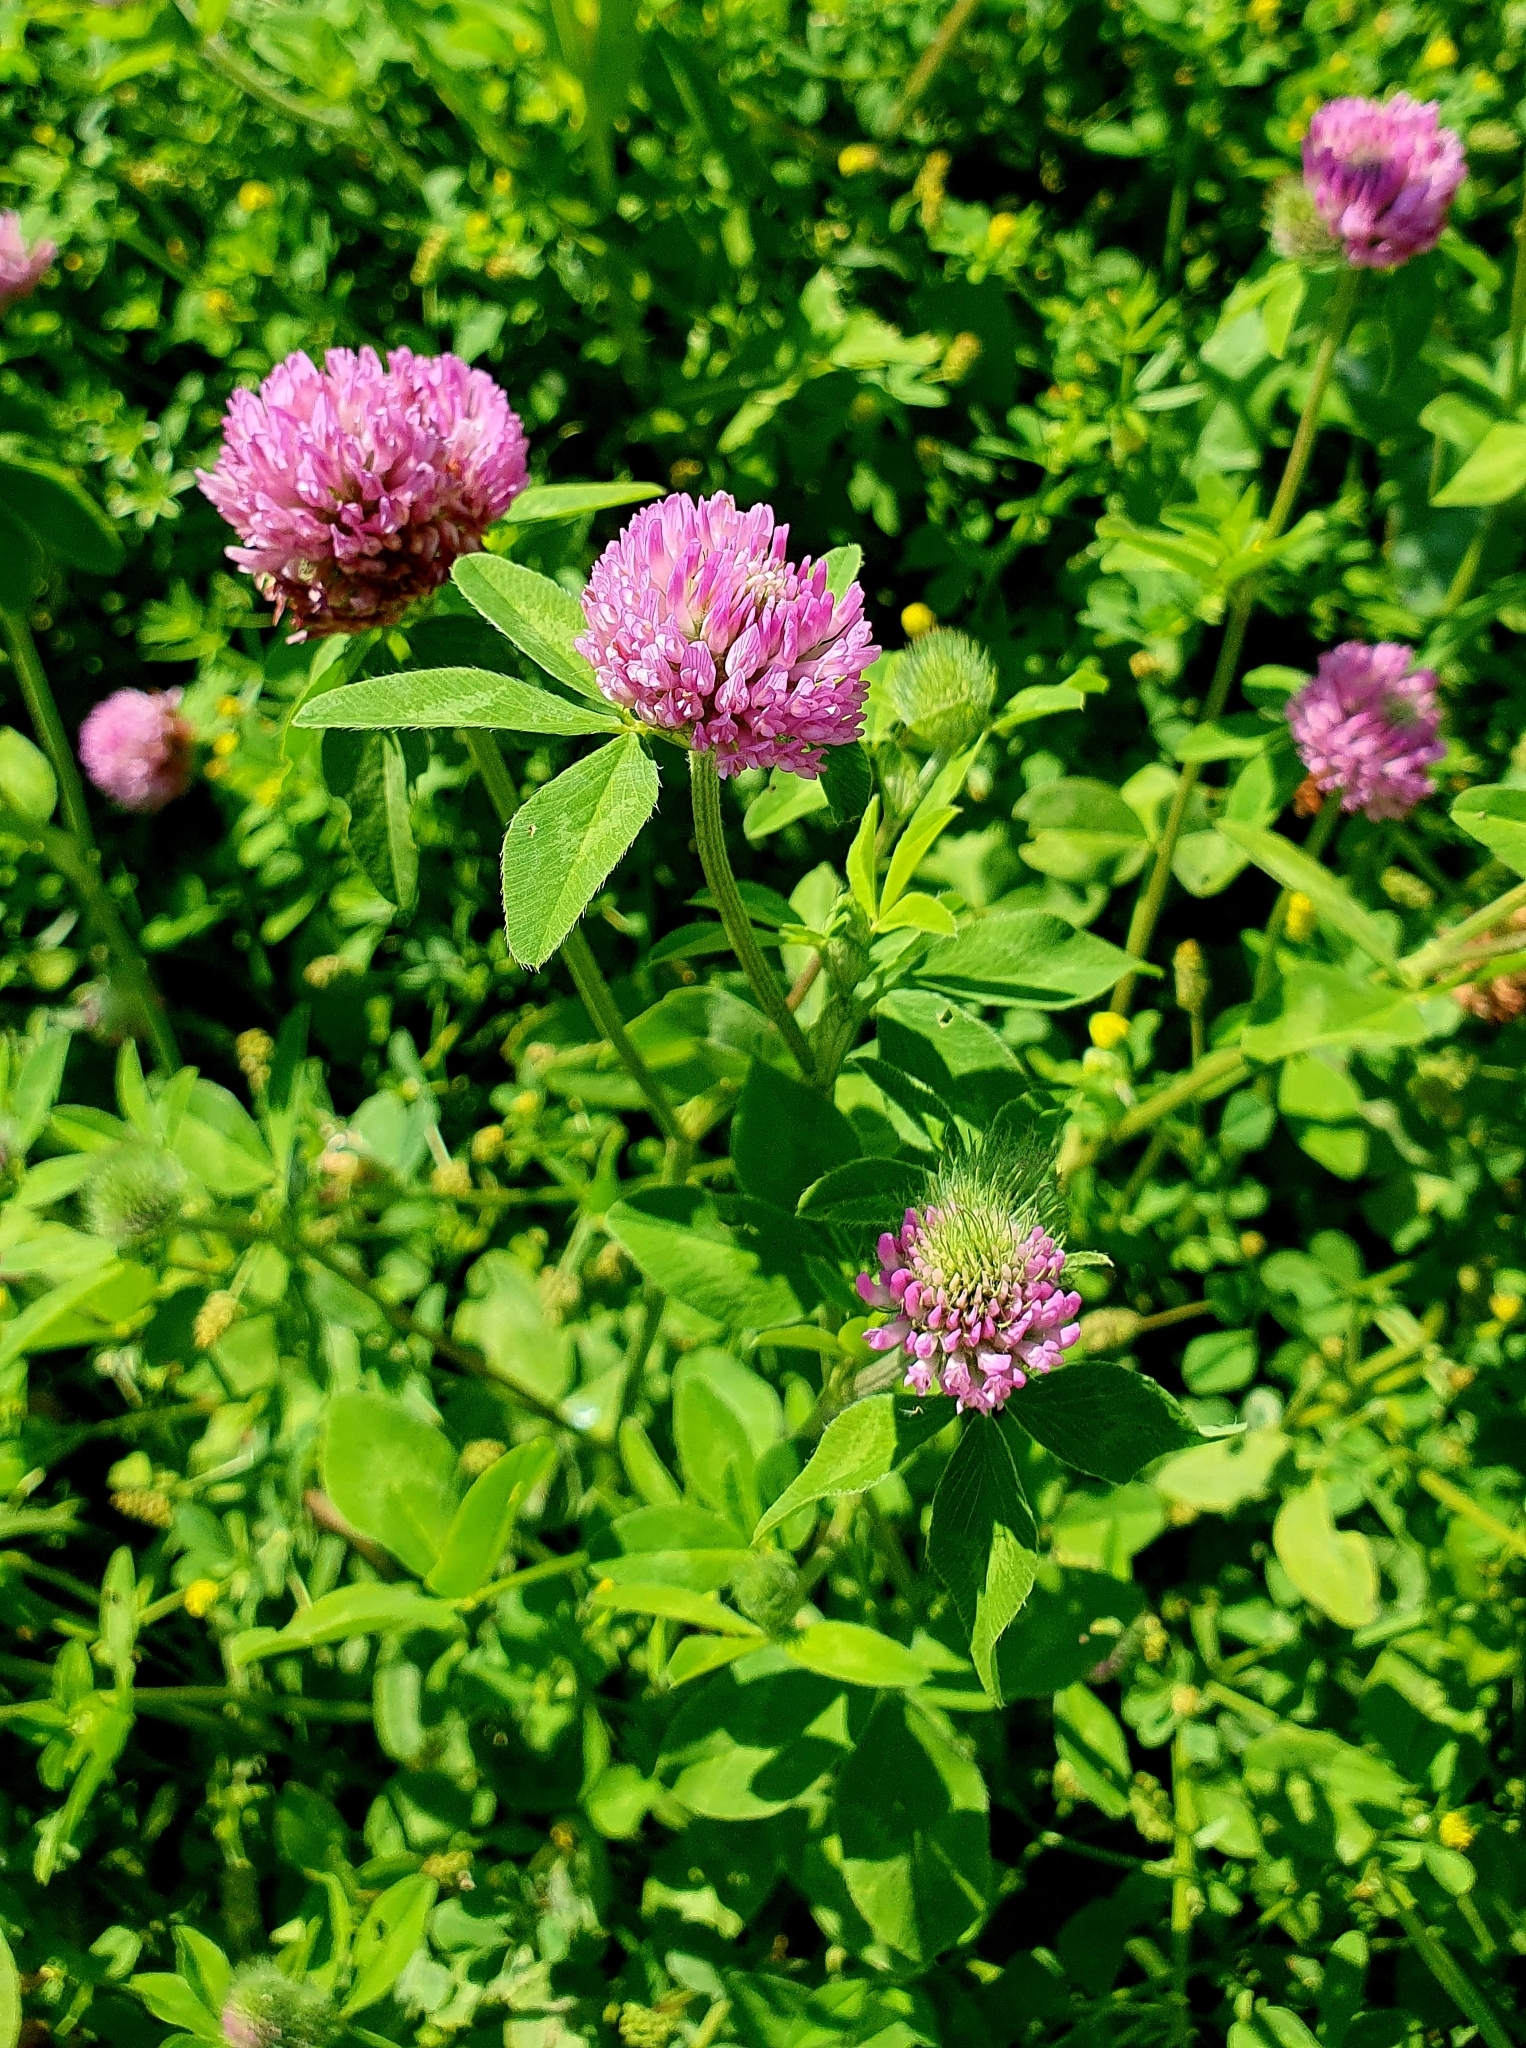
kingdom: Plantae
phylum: Tracheophyta
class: Magnoliopsida
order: Fabales
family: Fabaceae
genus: Trifolium
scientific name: Trifolium pratense
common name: Red clover
